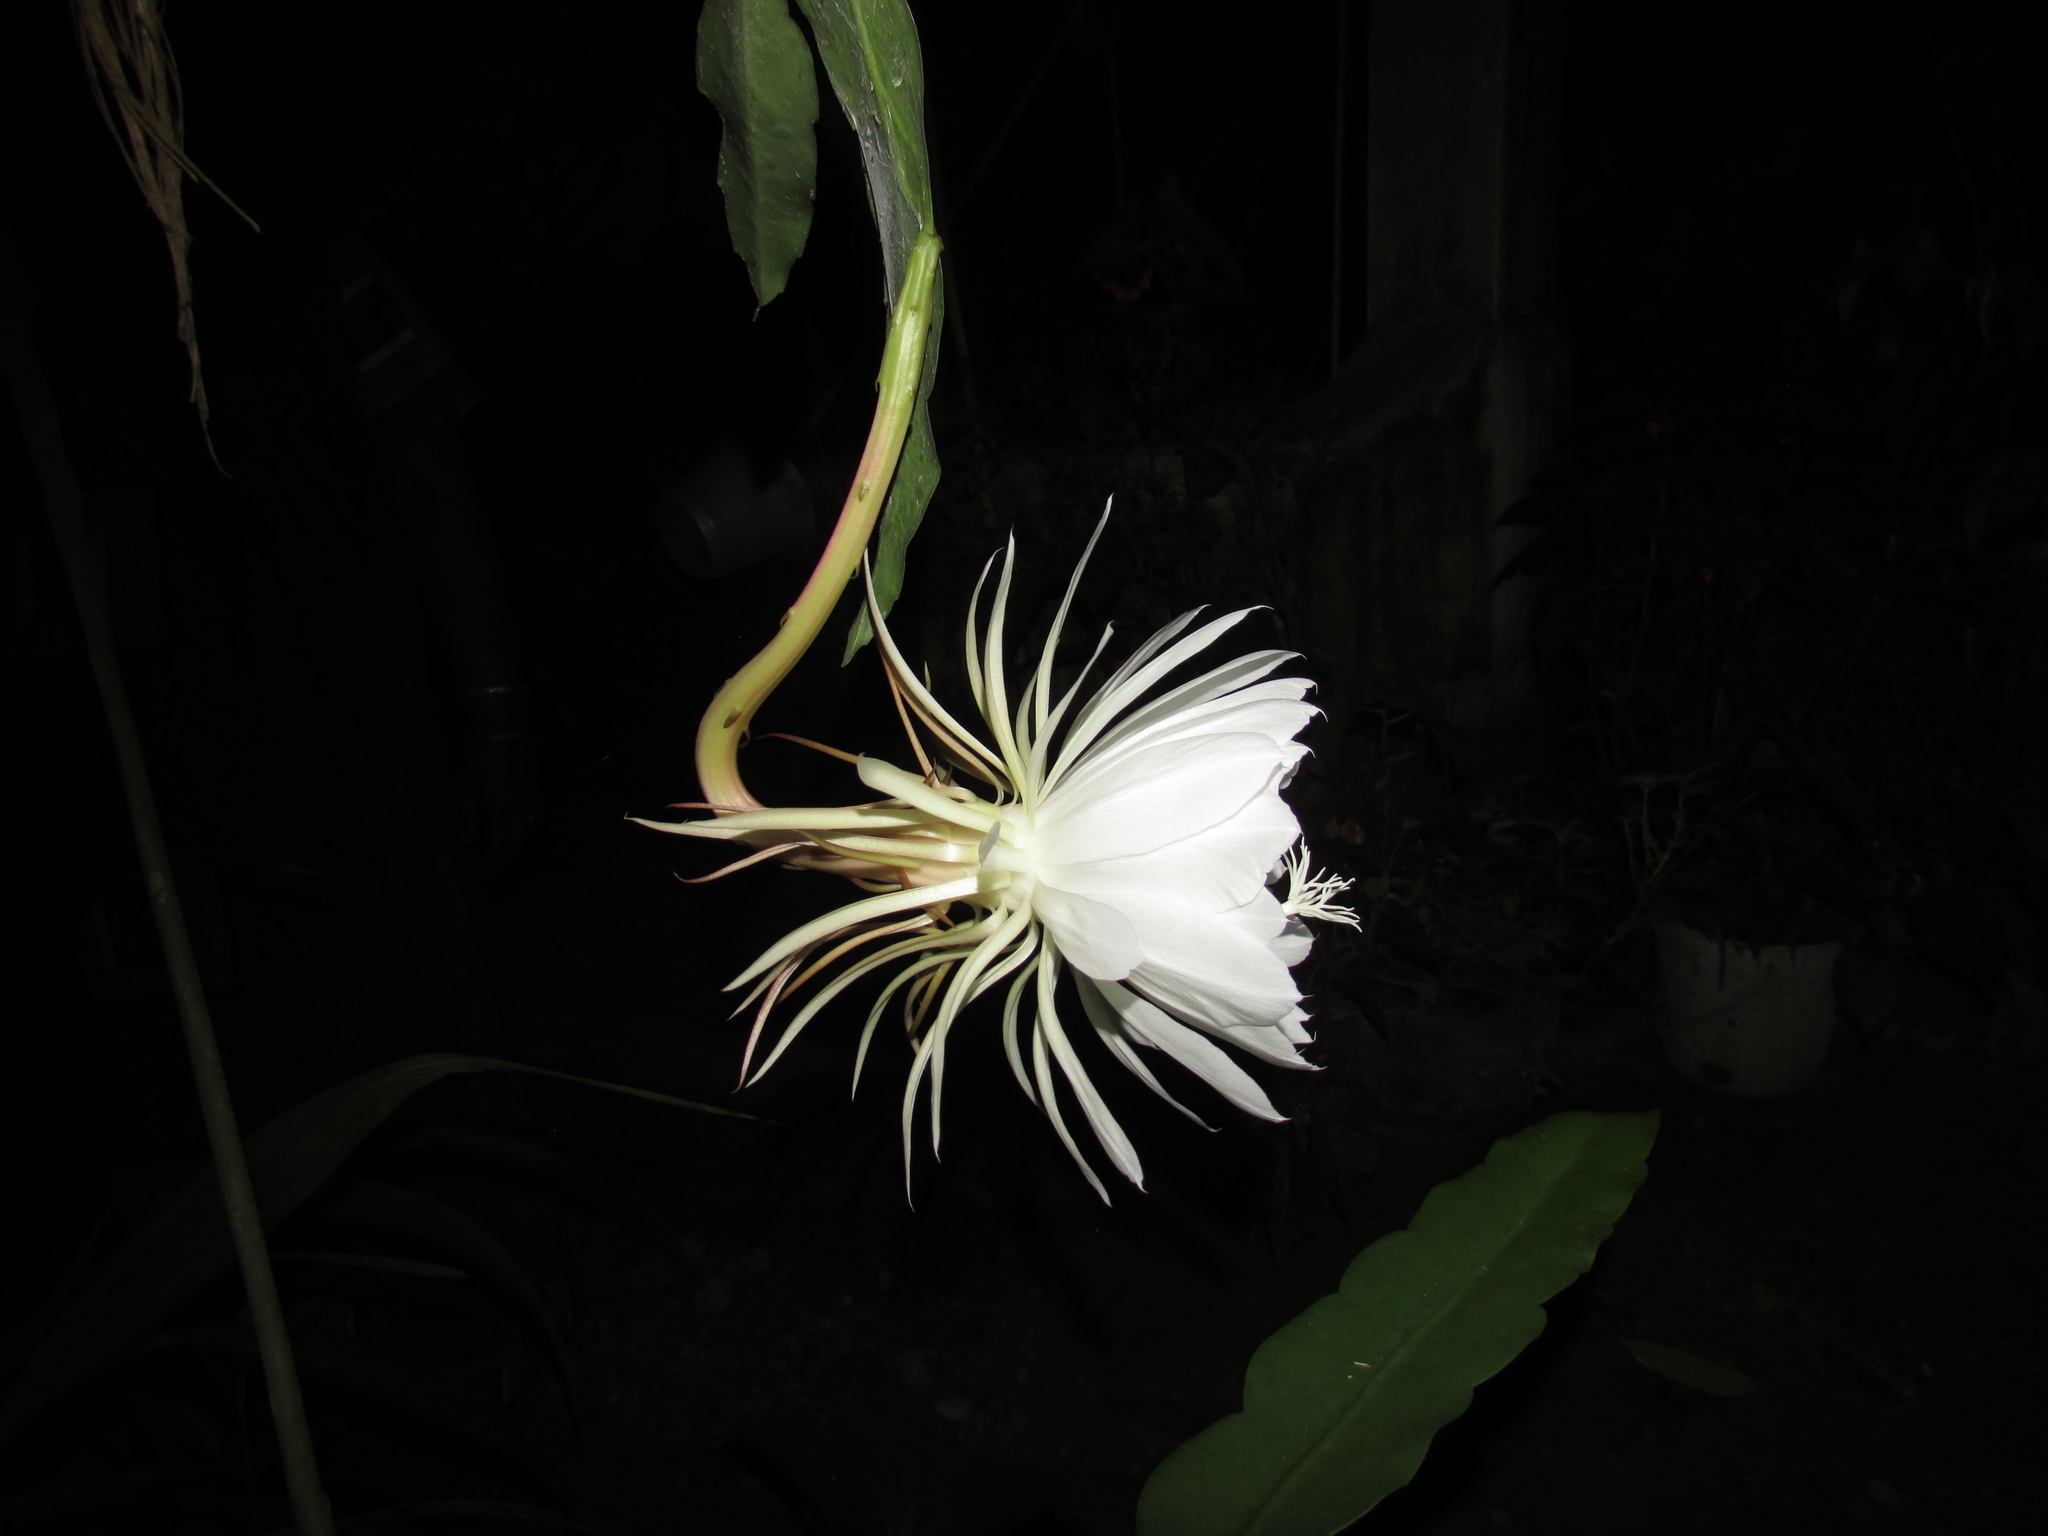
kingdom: Plantae
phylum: Tracheophyta
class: Magnoliopsida
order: Caryophyllales
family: Cactaceae
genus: Epiphyllum
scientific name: Epiphyllum oxypetalum
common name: Dutchman's pipe cactus
